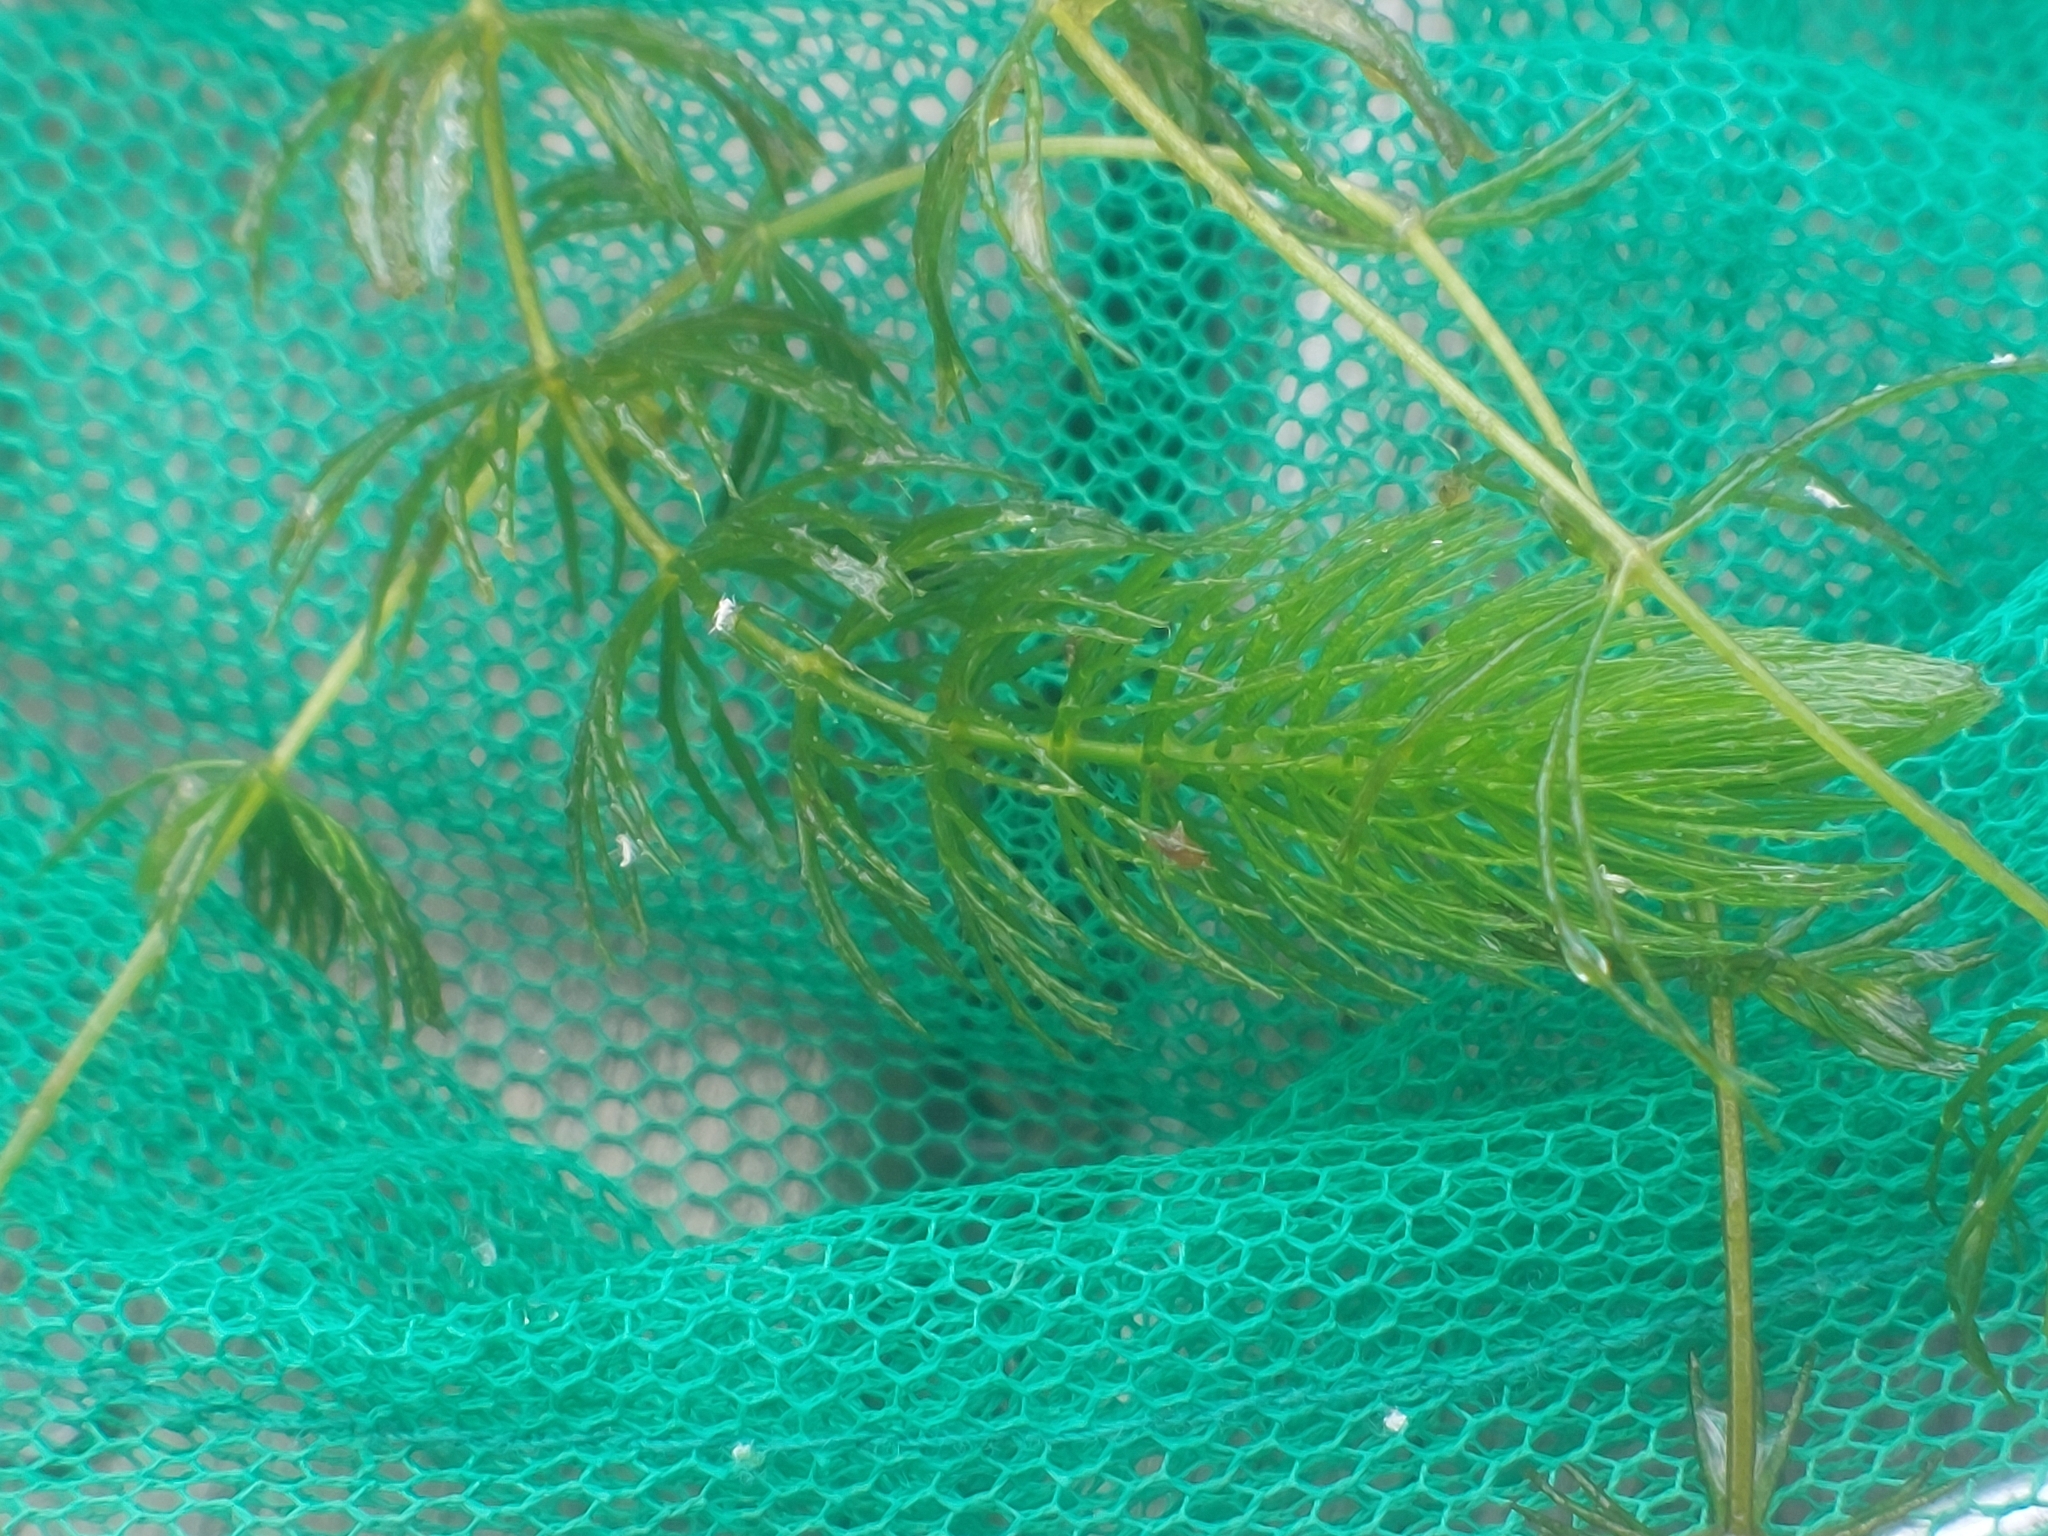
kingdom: Plantae
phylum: Tracheophyta
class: Magnoliopsida
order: Ceratophyllales
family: Ceratophyllaceae
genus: Ceratophyllum
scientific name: Ceratophyllum demersum
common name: Rigid hornwort
